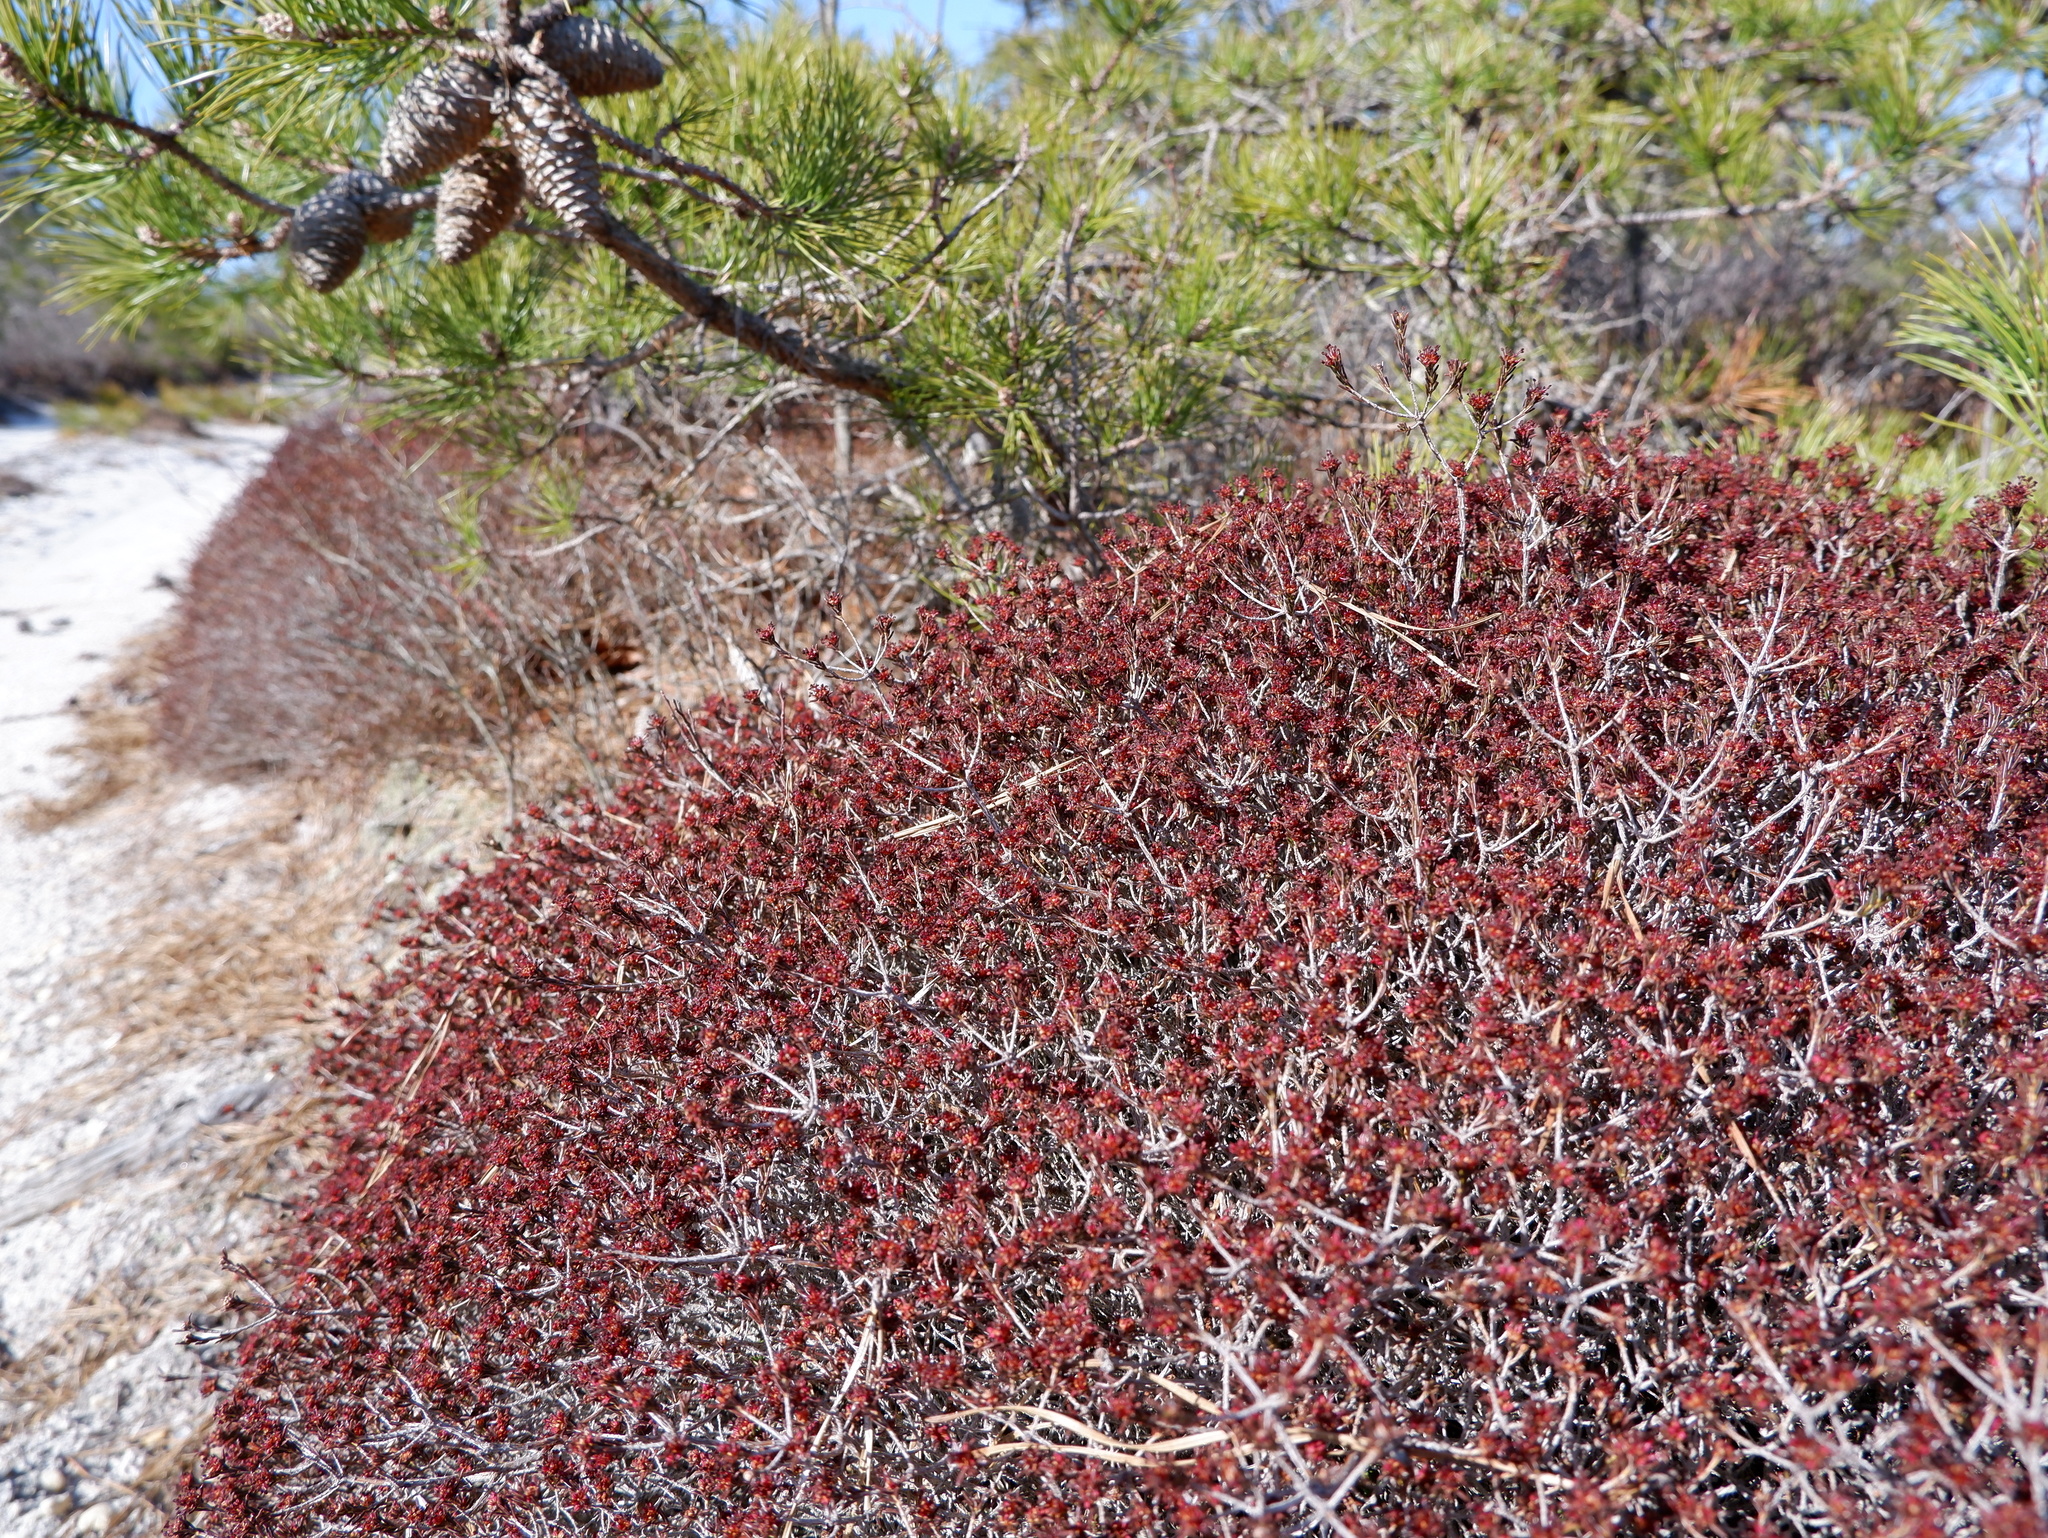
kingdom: Plantae
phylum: Tracheophyta
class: Magnoliopsida
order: Ericales
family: Ericaceae
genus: Corema
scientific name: Corema conradii
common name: Broom-crowberry
